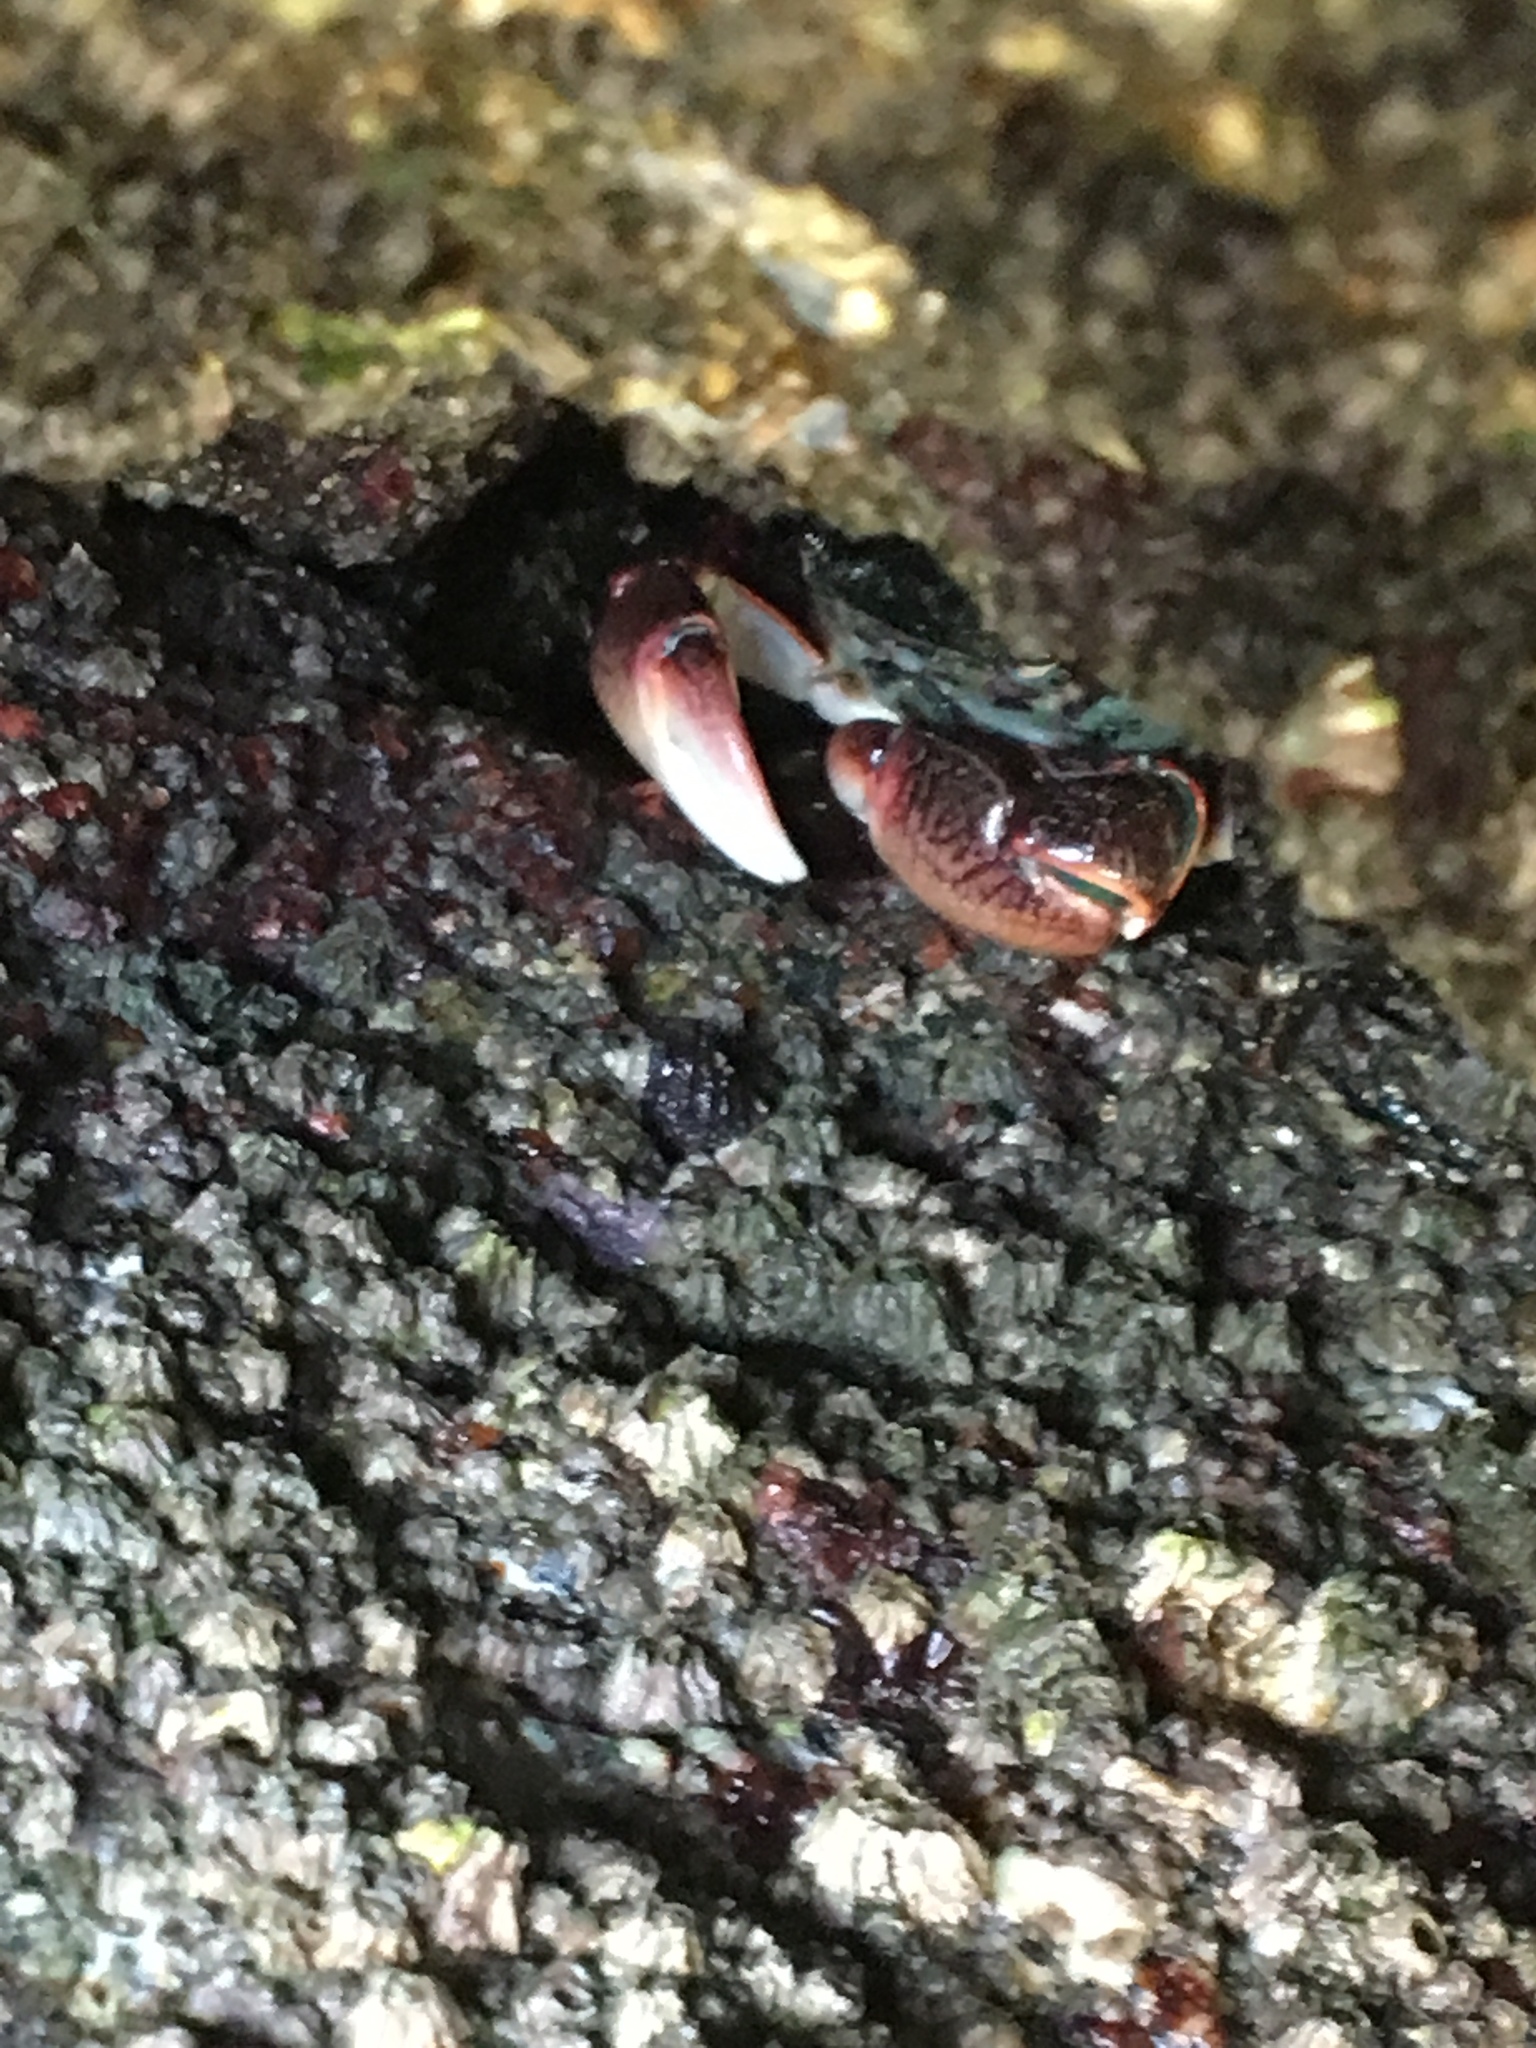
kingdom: Animalia
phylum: Arthropoda
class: Malacostraca
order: Decapoda
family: Grapsidae
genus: Pachygrapsus
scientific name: Pachygrapsus crassipes
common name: Striped shore crab
